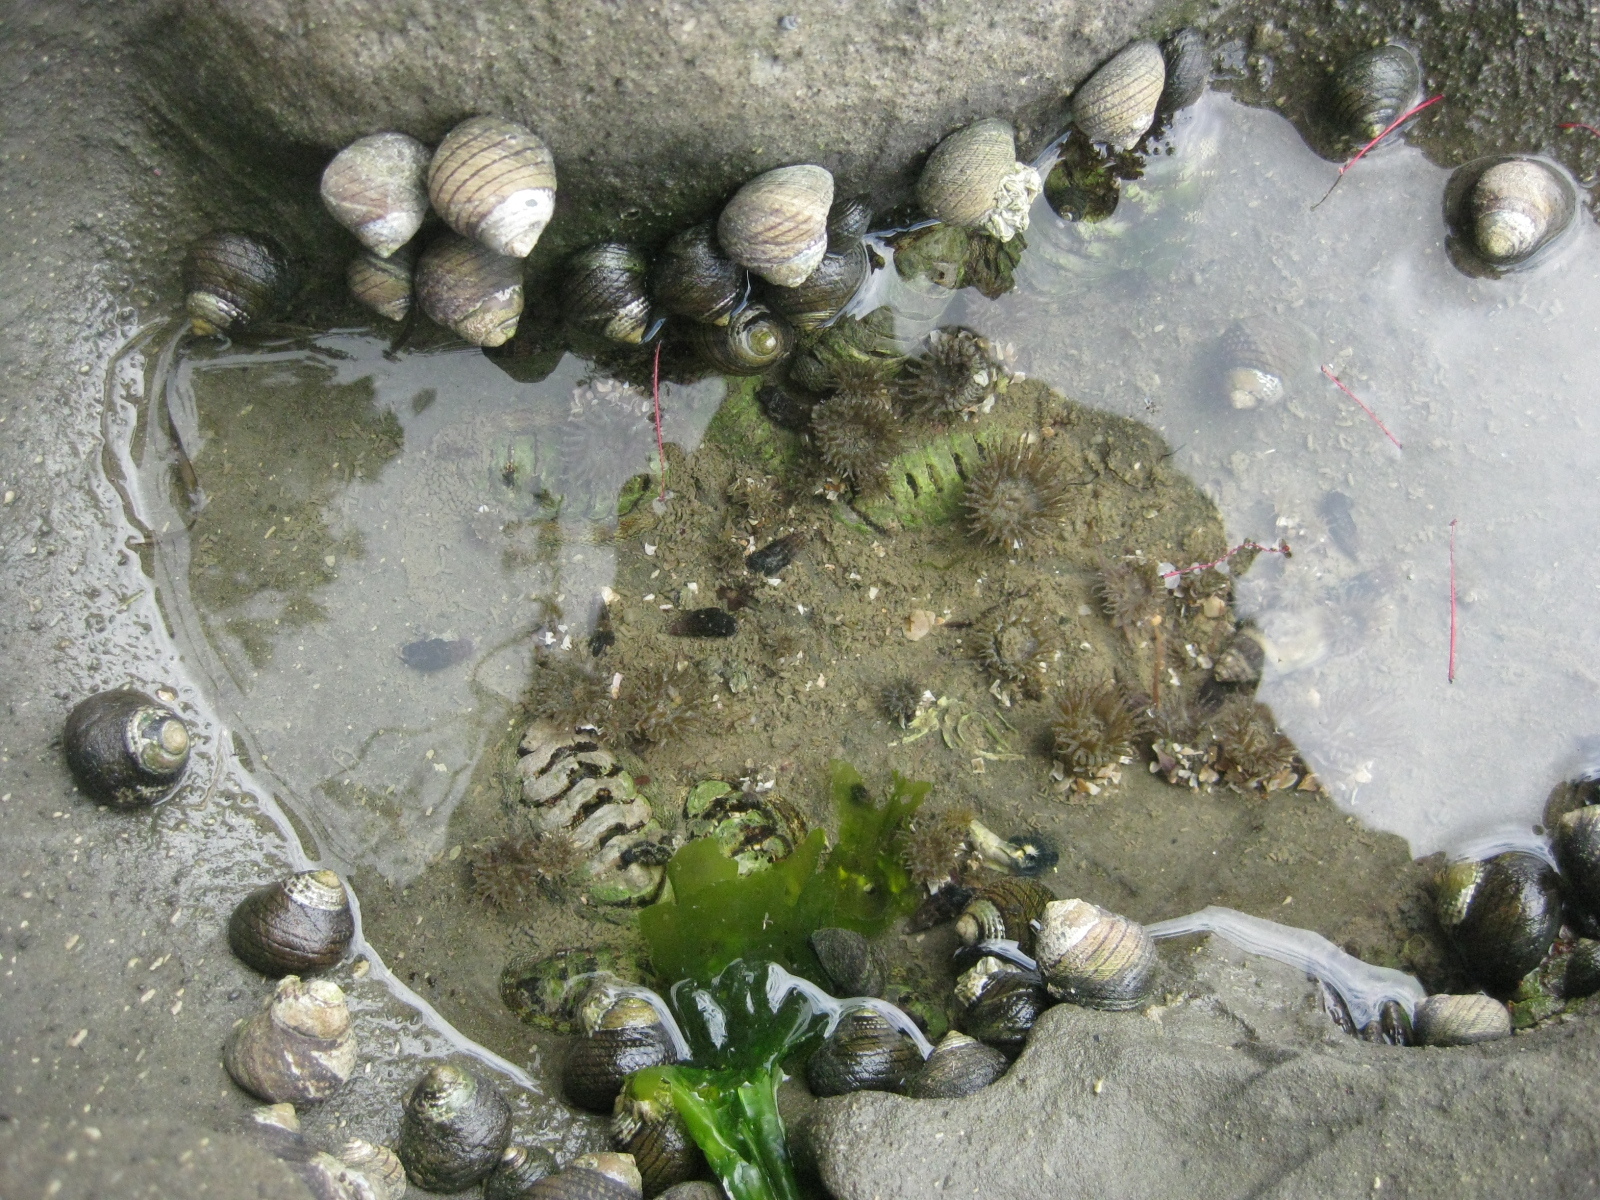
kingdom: Animalia
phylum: Mollusca
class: Gastropoda
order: Trochida
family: Trochidae
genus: Diloma
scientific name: Diloma aethiops
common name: Scorched monodont
